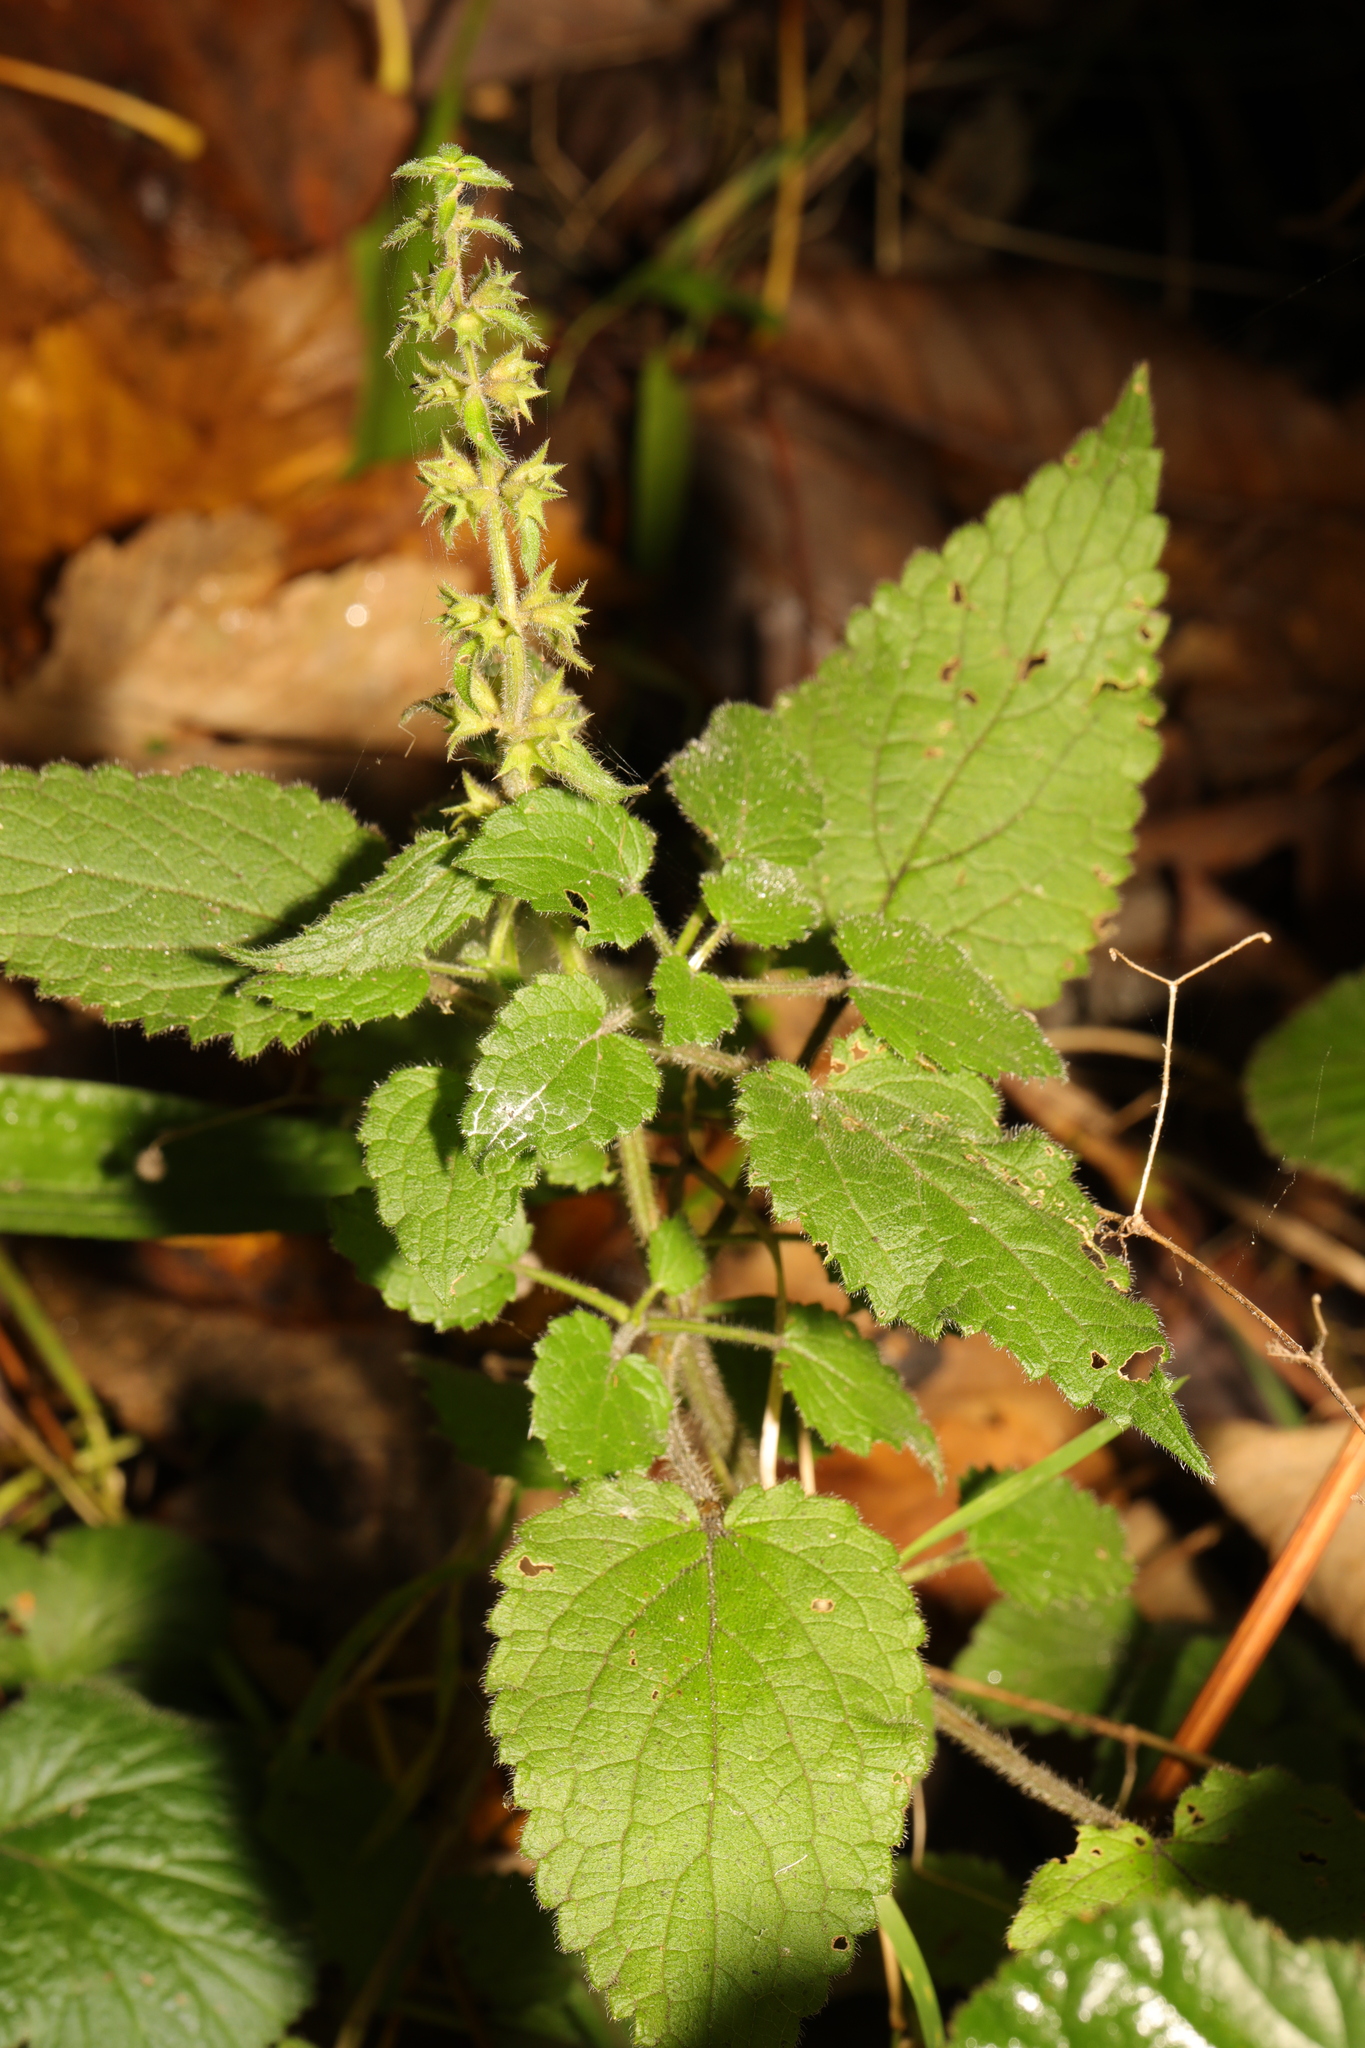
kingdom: Plantae
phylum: Tracheophyta
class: Magnoliopsida
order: Lamiales
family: Lamiaceae
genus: Stachys
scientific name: Stachys sylvatica
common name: Hedge woundwort
